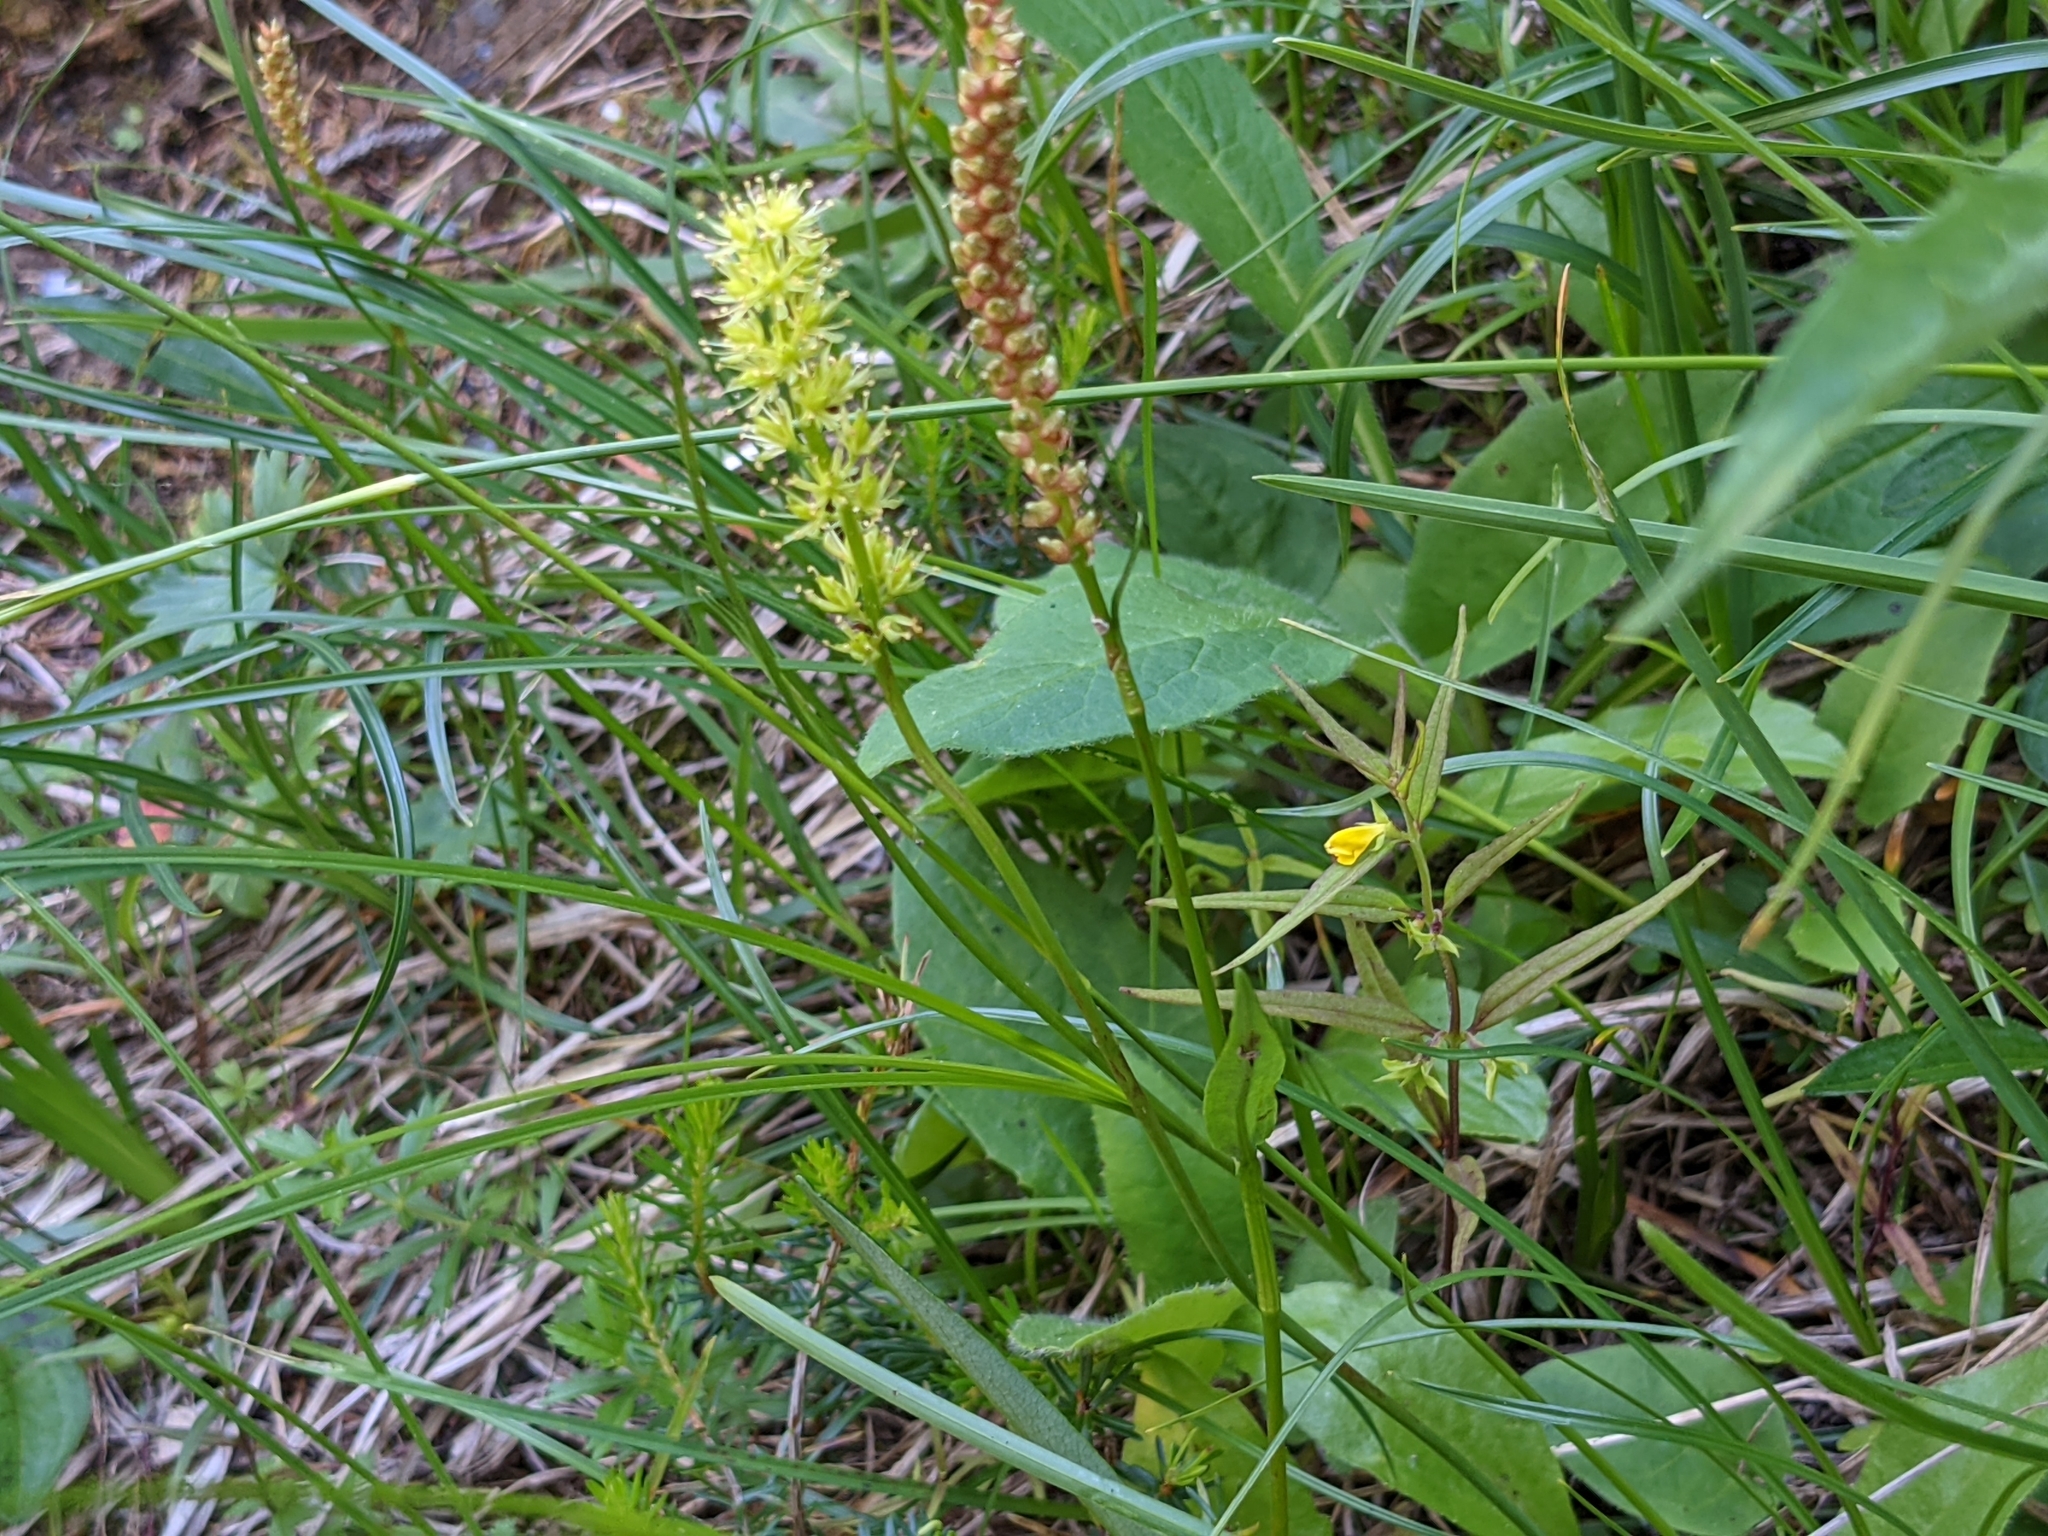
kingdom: Plantae
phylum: Tracheophyta
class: Liliopsida
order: Alismatales
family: Tofieldiaceae
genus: Tofieldia
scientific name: Tofieldia calyculata
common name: German-asphodel
